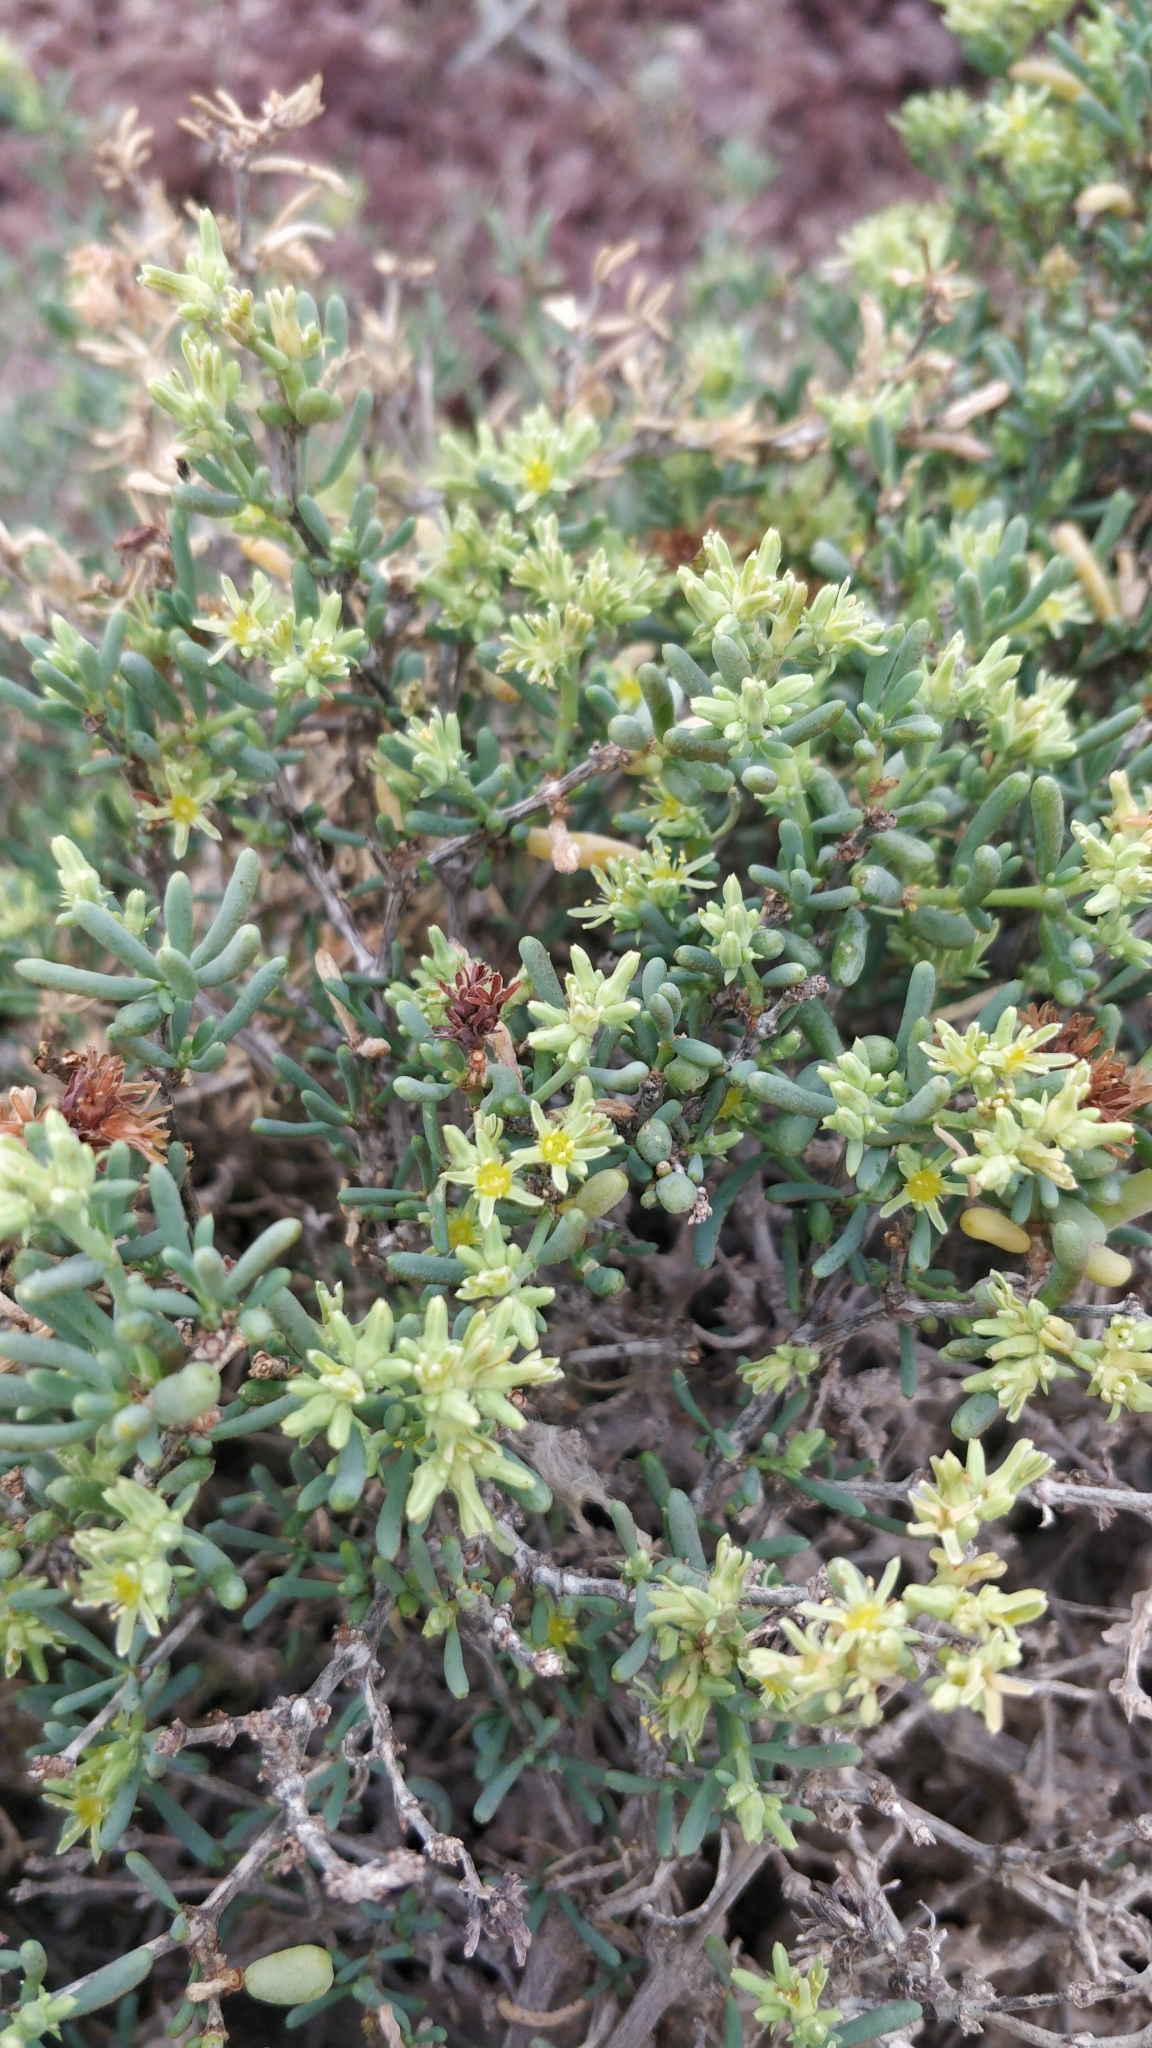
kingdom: Plantae
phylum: Tracheophyta
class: Magnoliopsida
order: Caryophyllales
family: Caryophyllaceae
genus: Gymnocarpos
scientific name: Gymnocarpos decander
